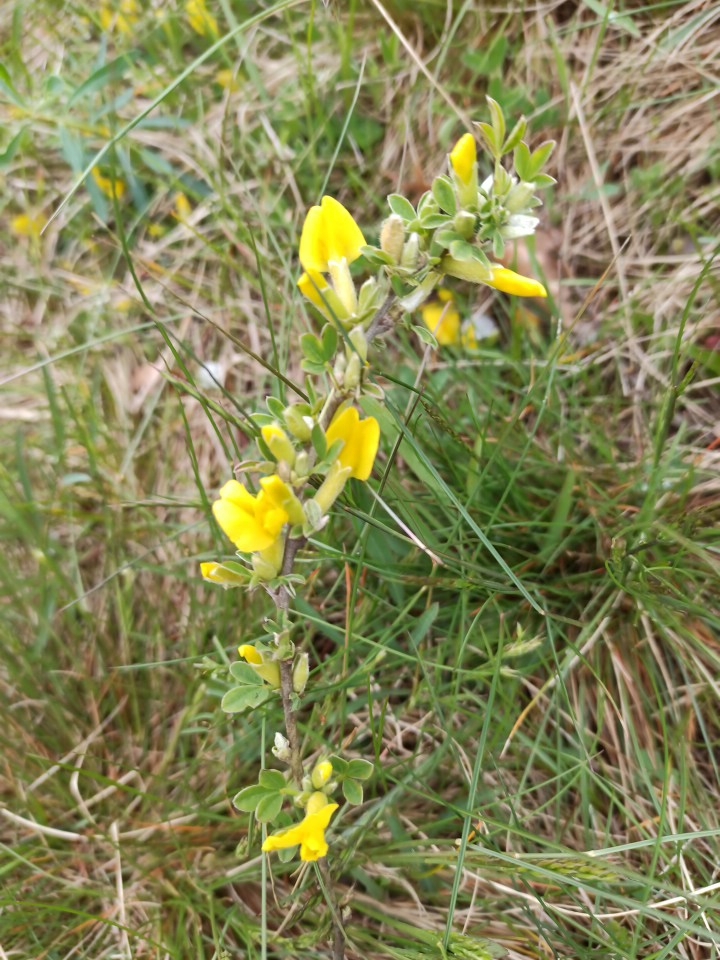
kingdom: Plantae
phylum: Tracheophyta
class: Magnoliopsida
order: Fabales
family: Fabaceae
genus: Chamaecytisus
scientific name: Chamaecytisus ratisbonensis
